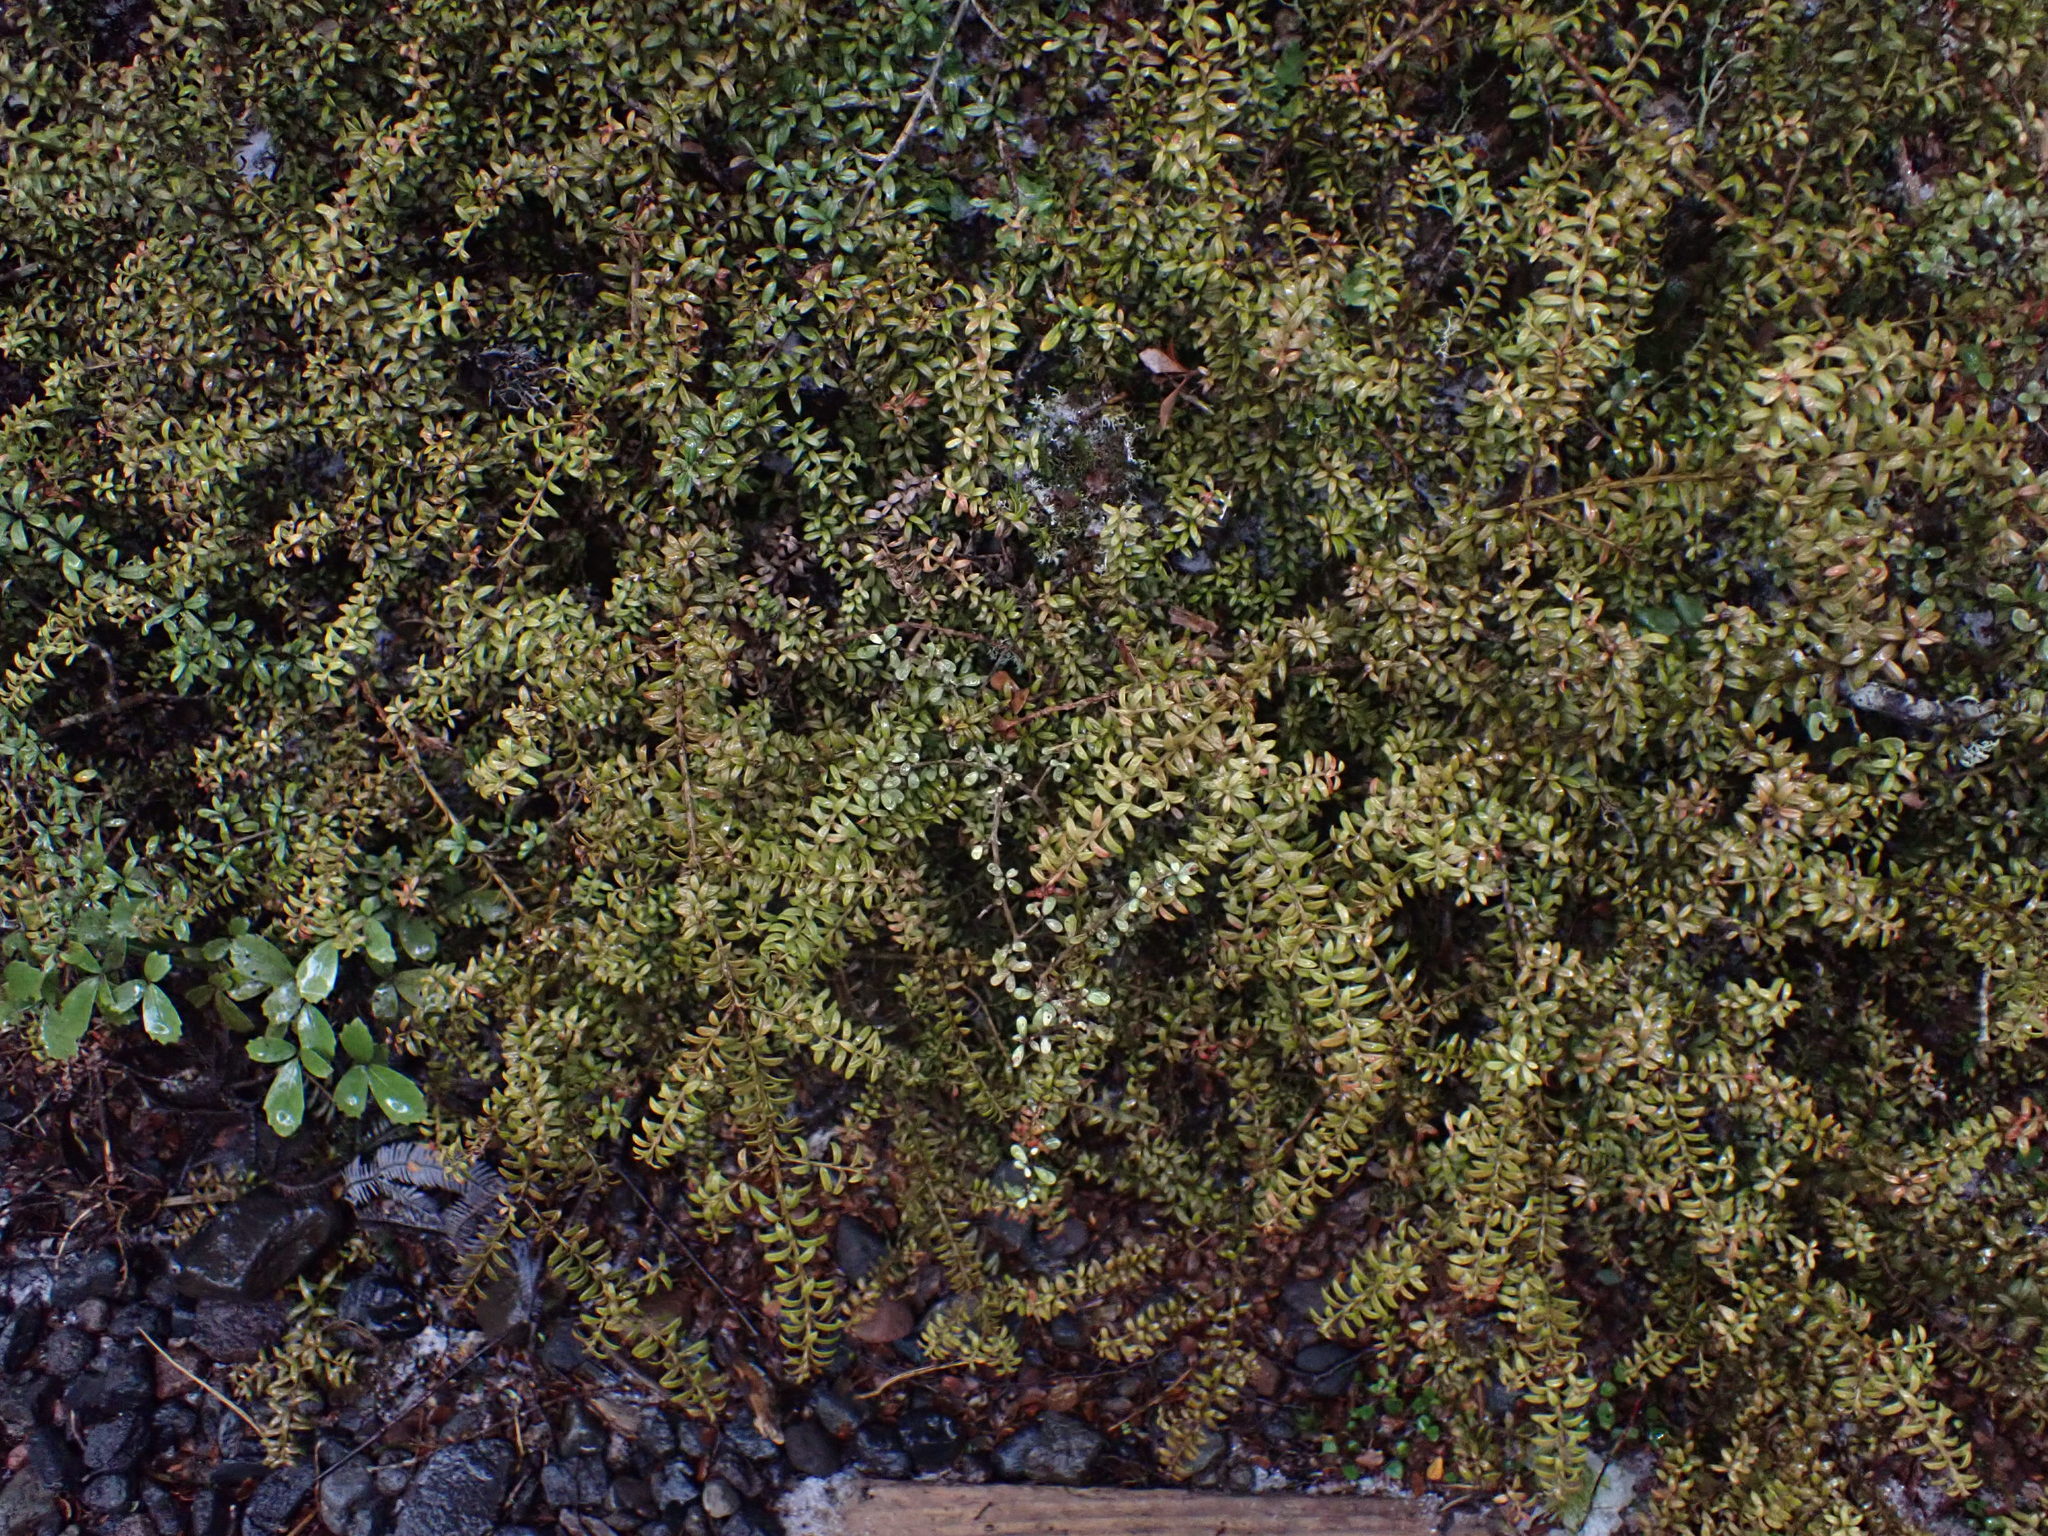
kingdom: Plantae
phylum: Tracheophyta
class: Pinopsida
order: Pinales
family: Podocarpaceae
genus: Podocarpus
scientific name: Podocarpus nivalis
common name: Alpine totara
